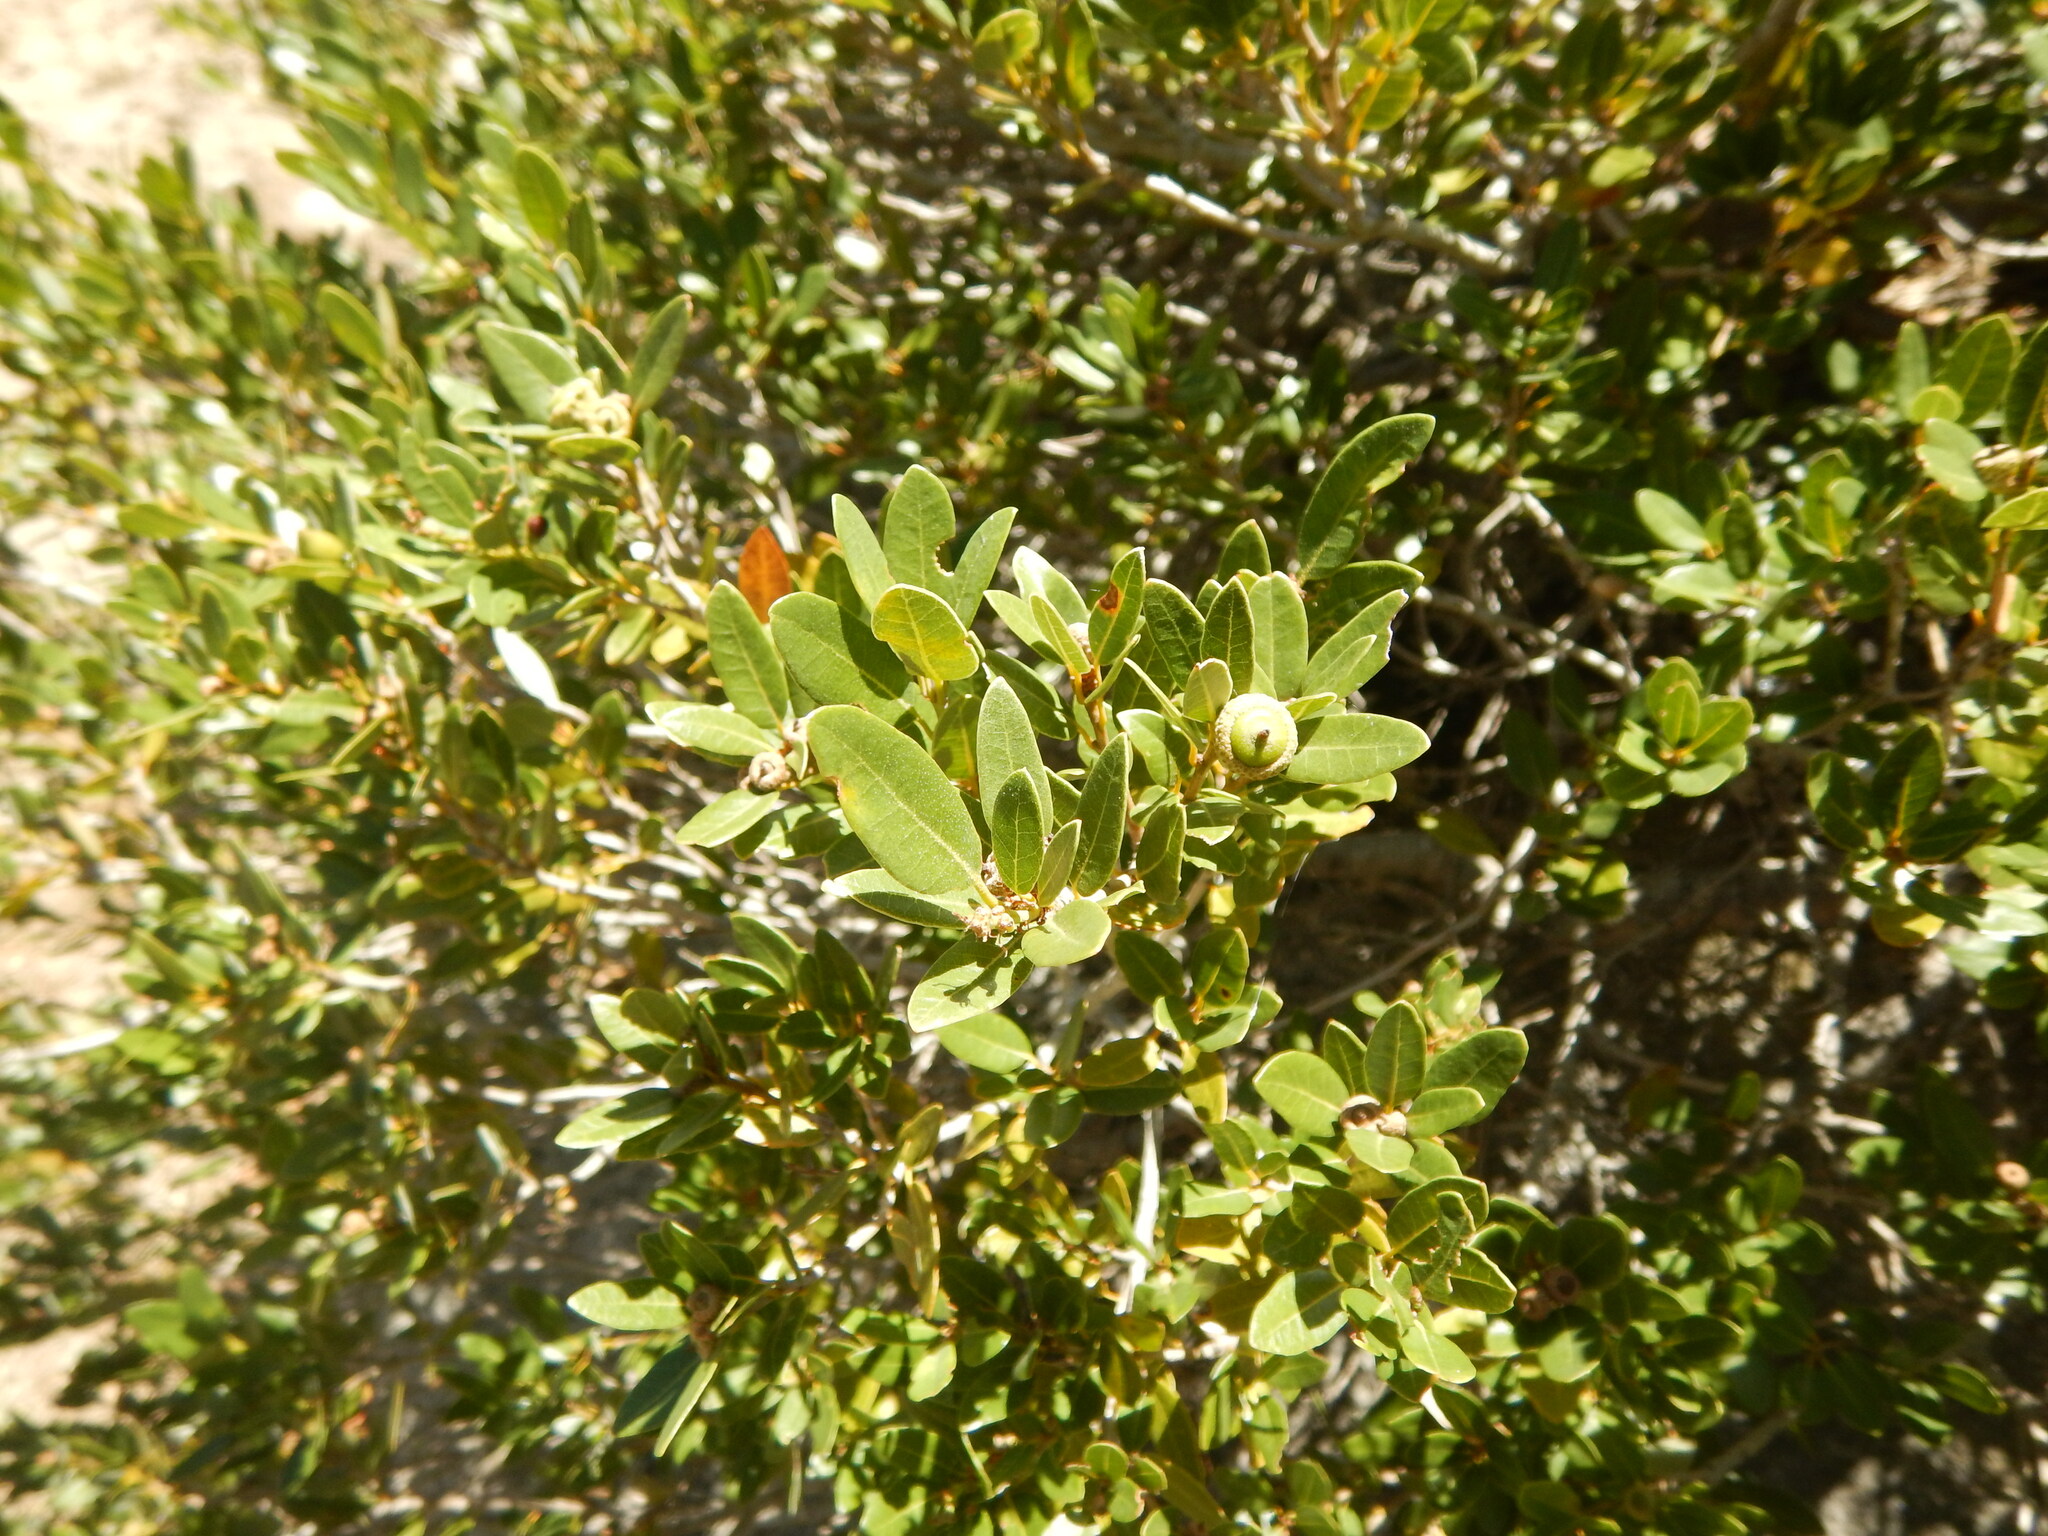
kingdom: Plantae
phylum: Tracheophyta
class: Magnoliopsida
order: Fagales
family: Fagaceae
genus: Quercus
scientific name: Quercus vacciniifolia
